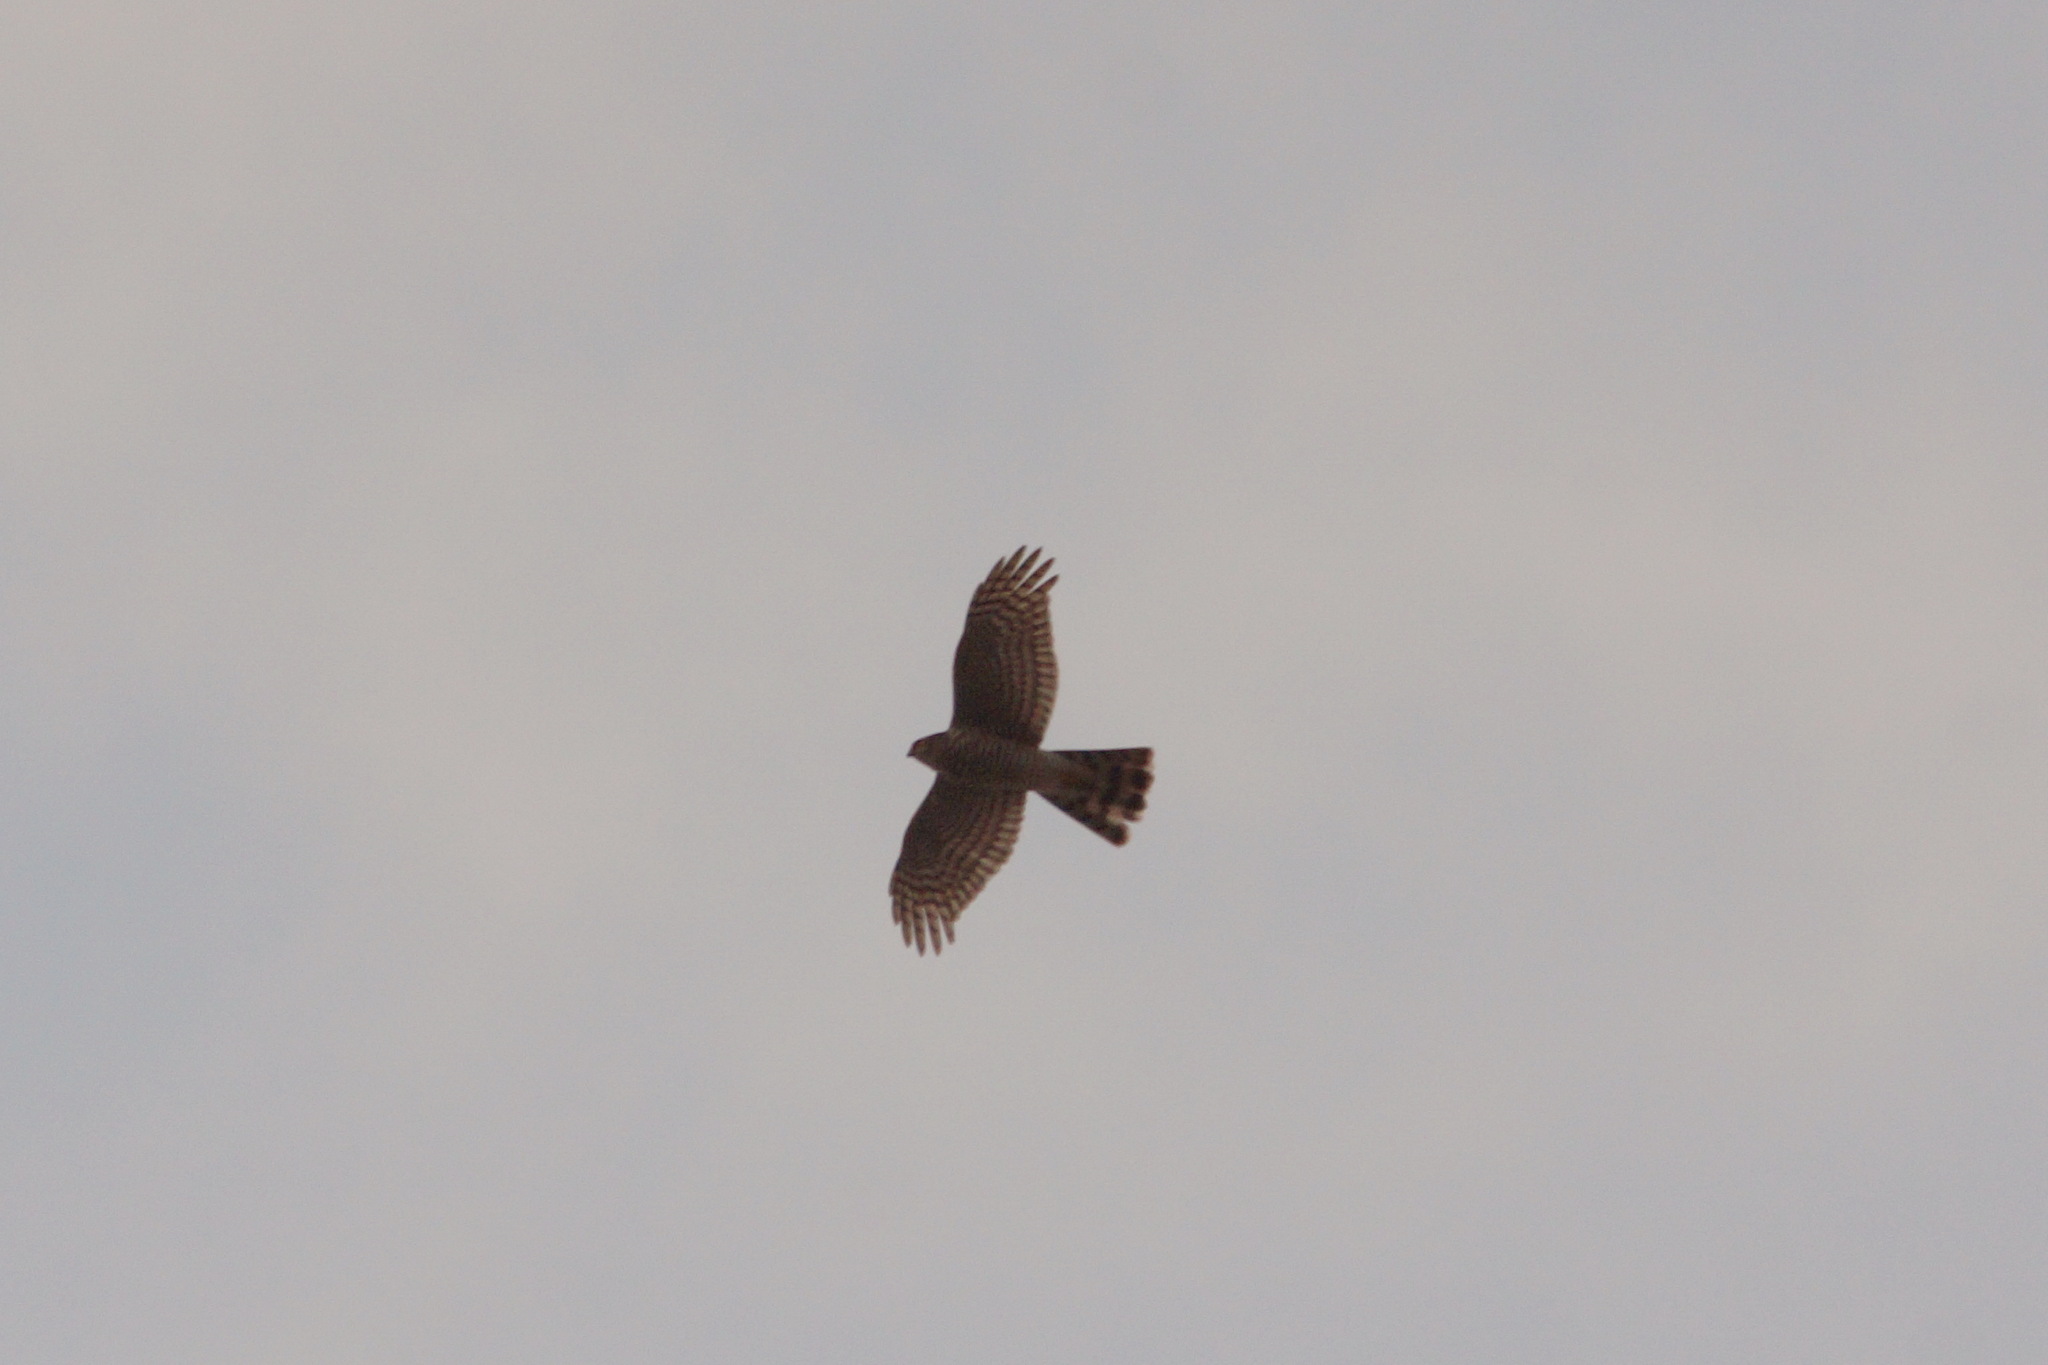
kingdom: Animalia
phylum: Chordata
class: Aves
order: Accipitriformes
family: Accipitridae
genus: Accipiter
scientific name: Accipiter nisus
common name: Eurasian sparrowhawk
